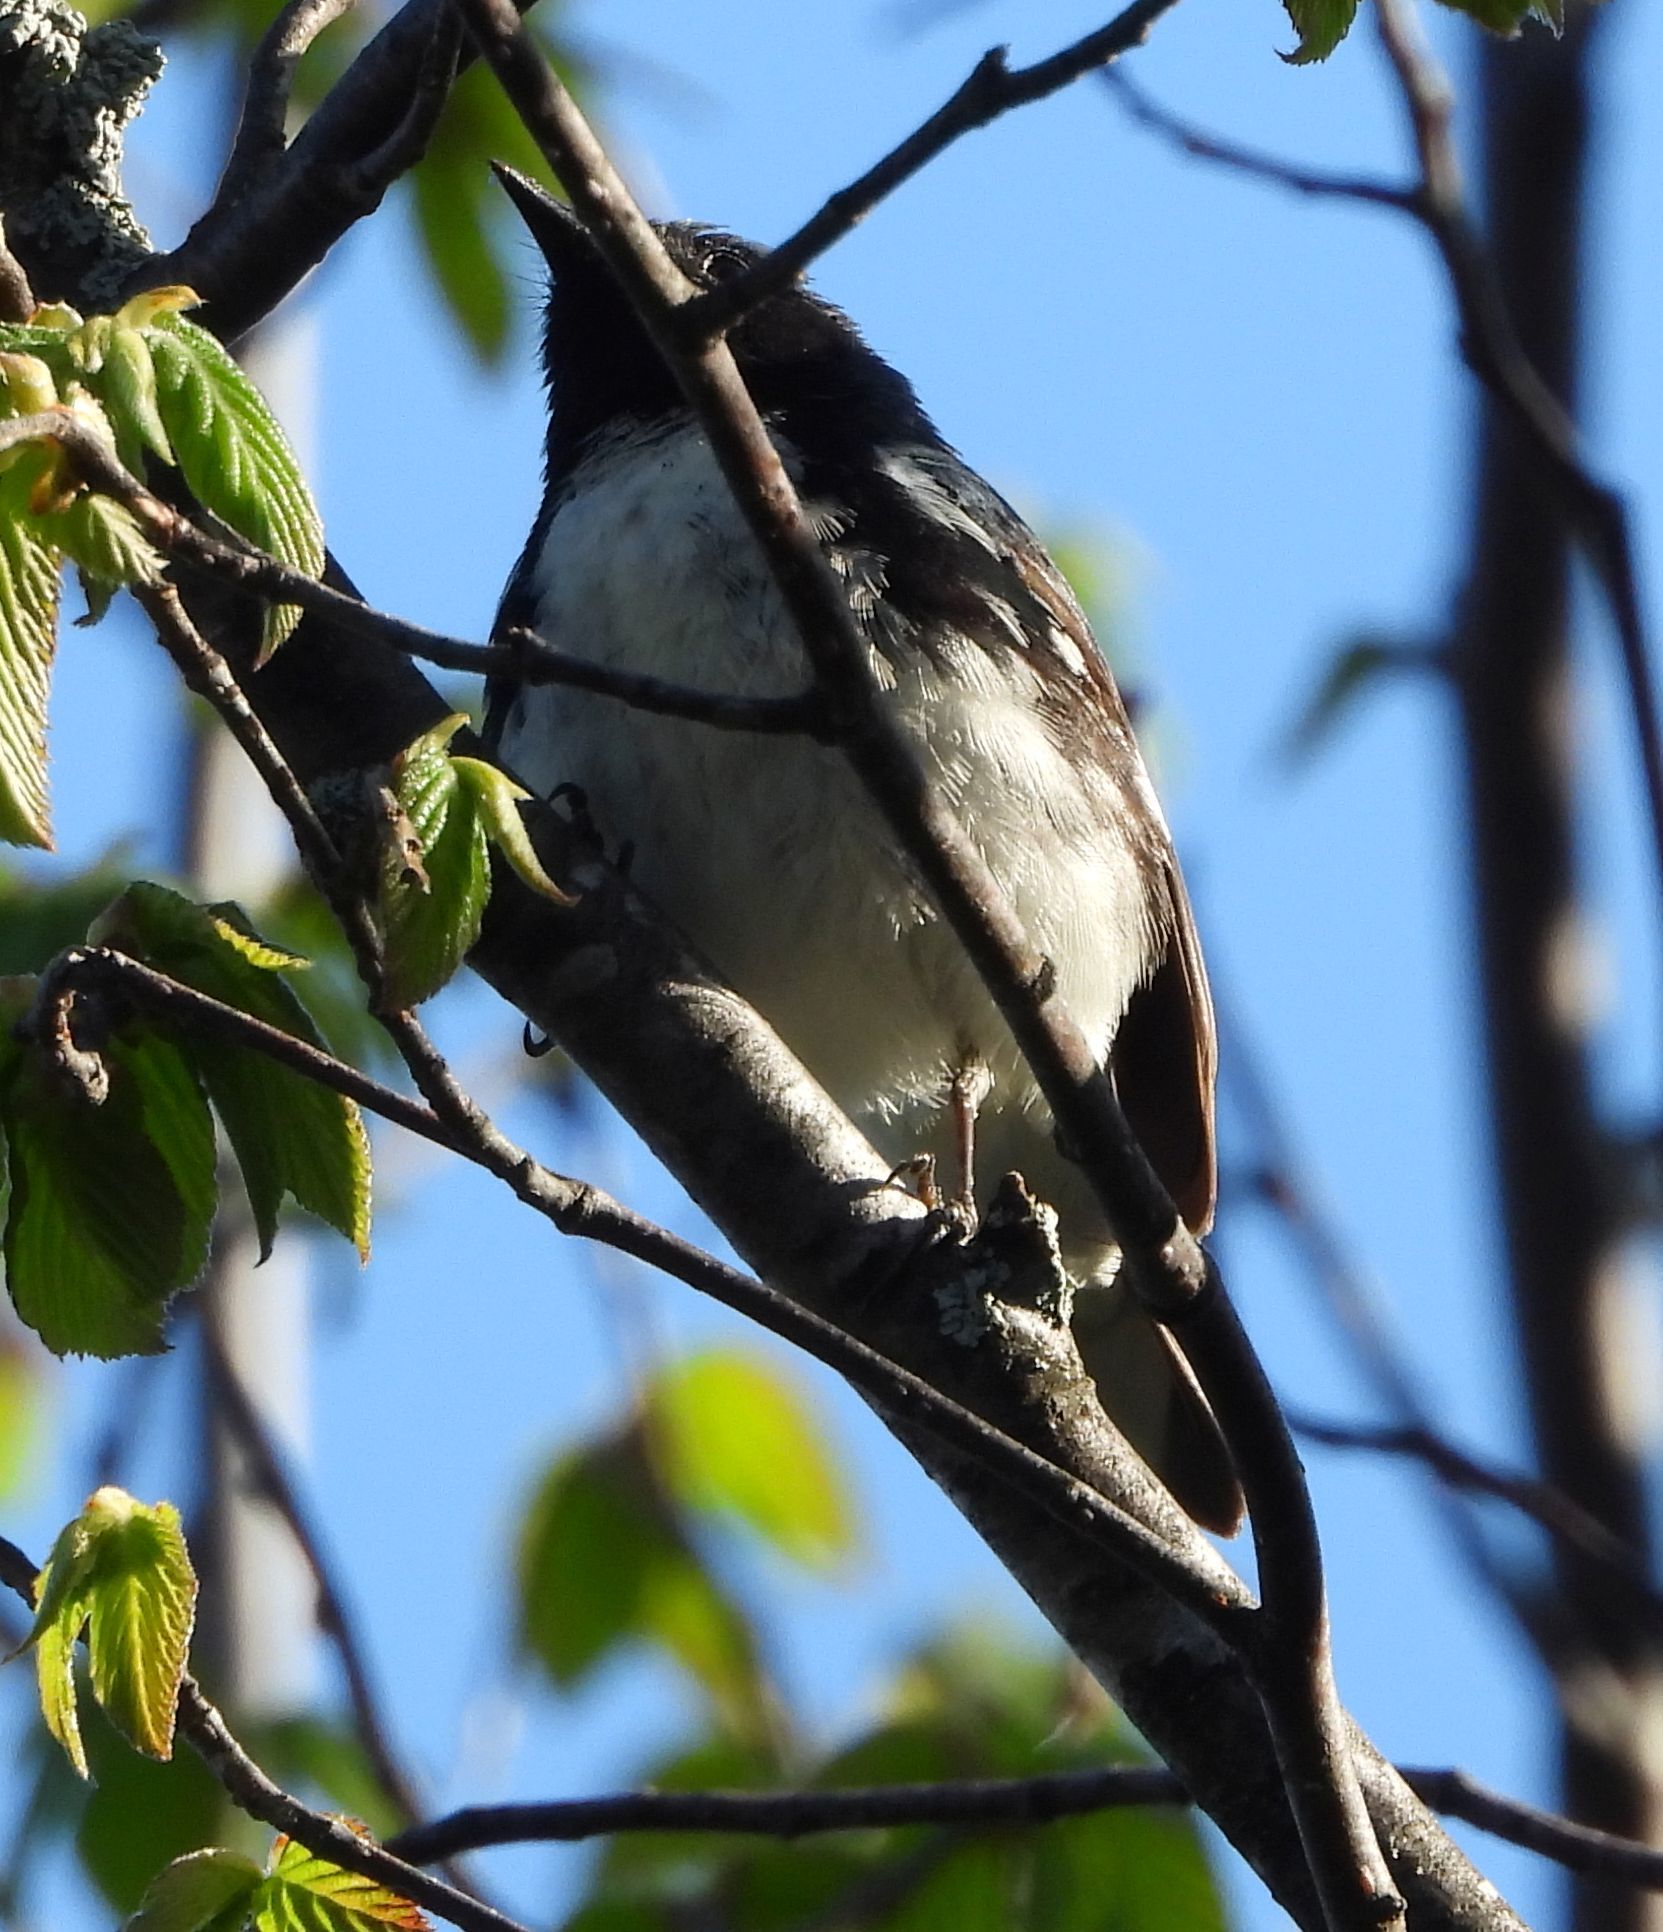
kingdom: Animalia
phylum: Chordata
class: Aves
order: Passeriformes
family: Parulidae
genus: Setophaga
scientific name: Setophaga caerulescens
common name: Black-throated blue warbler
